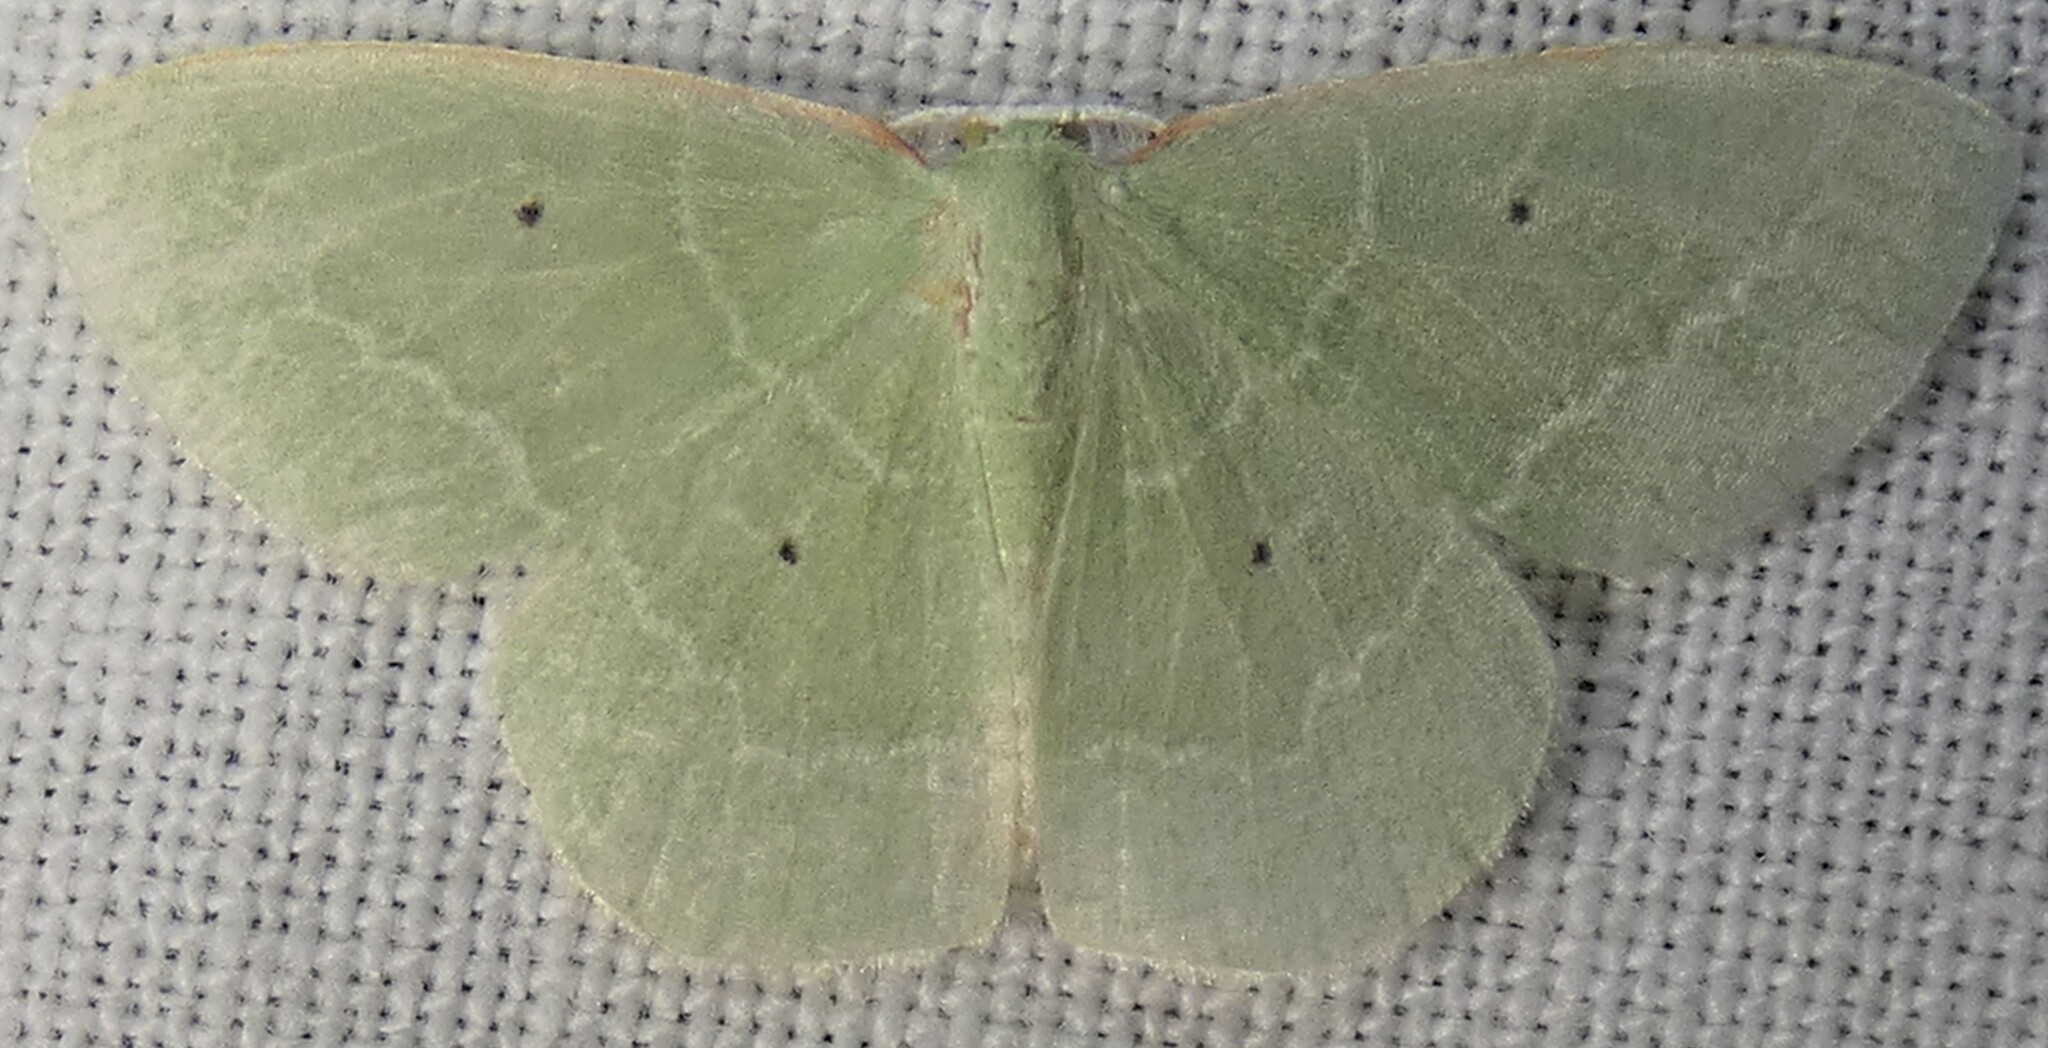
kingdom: Animalia
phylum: Arthropoda
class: Insecta
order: Lepidoptera
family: Geometridae
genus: Nemoria
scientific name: Nemoria elfa
